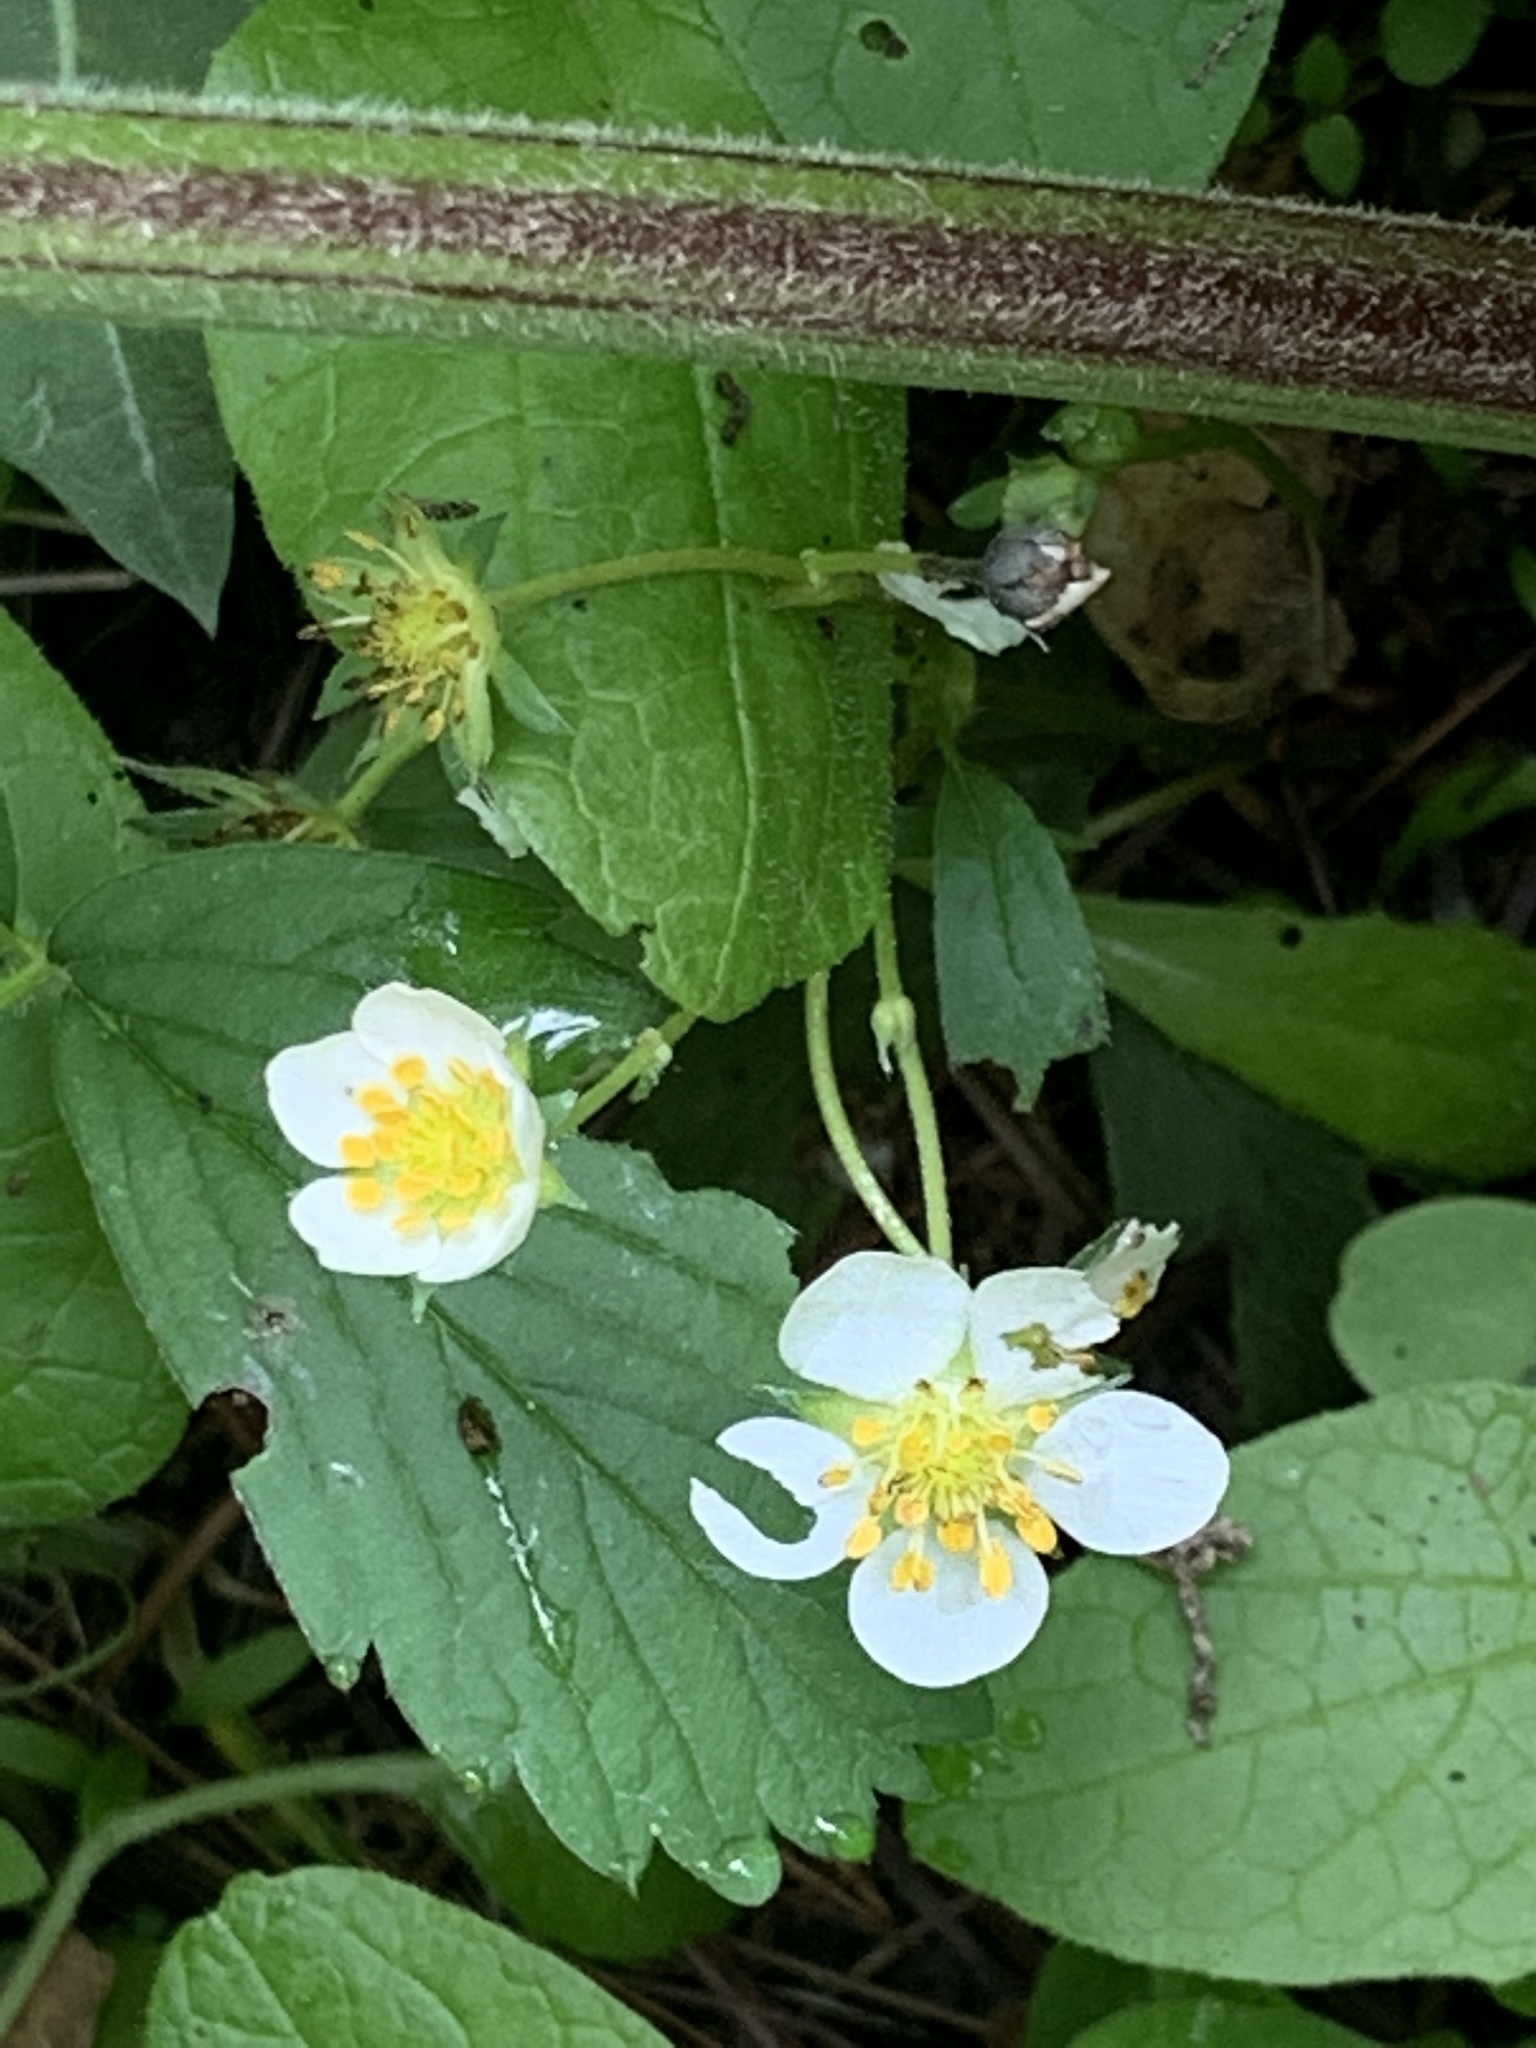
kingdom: Plantae
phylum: Tracheophyta
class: Magnoliopsida
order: Rosales
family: Rosaceae
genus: Fragaria
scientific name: Fragaria virginiana
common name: Thickleaved wild strawberry
